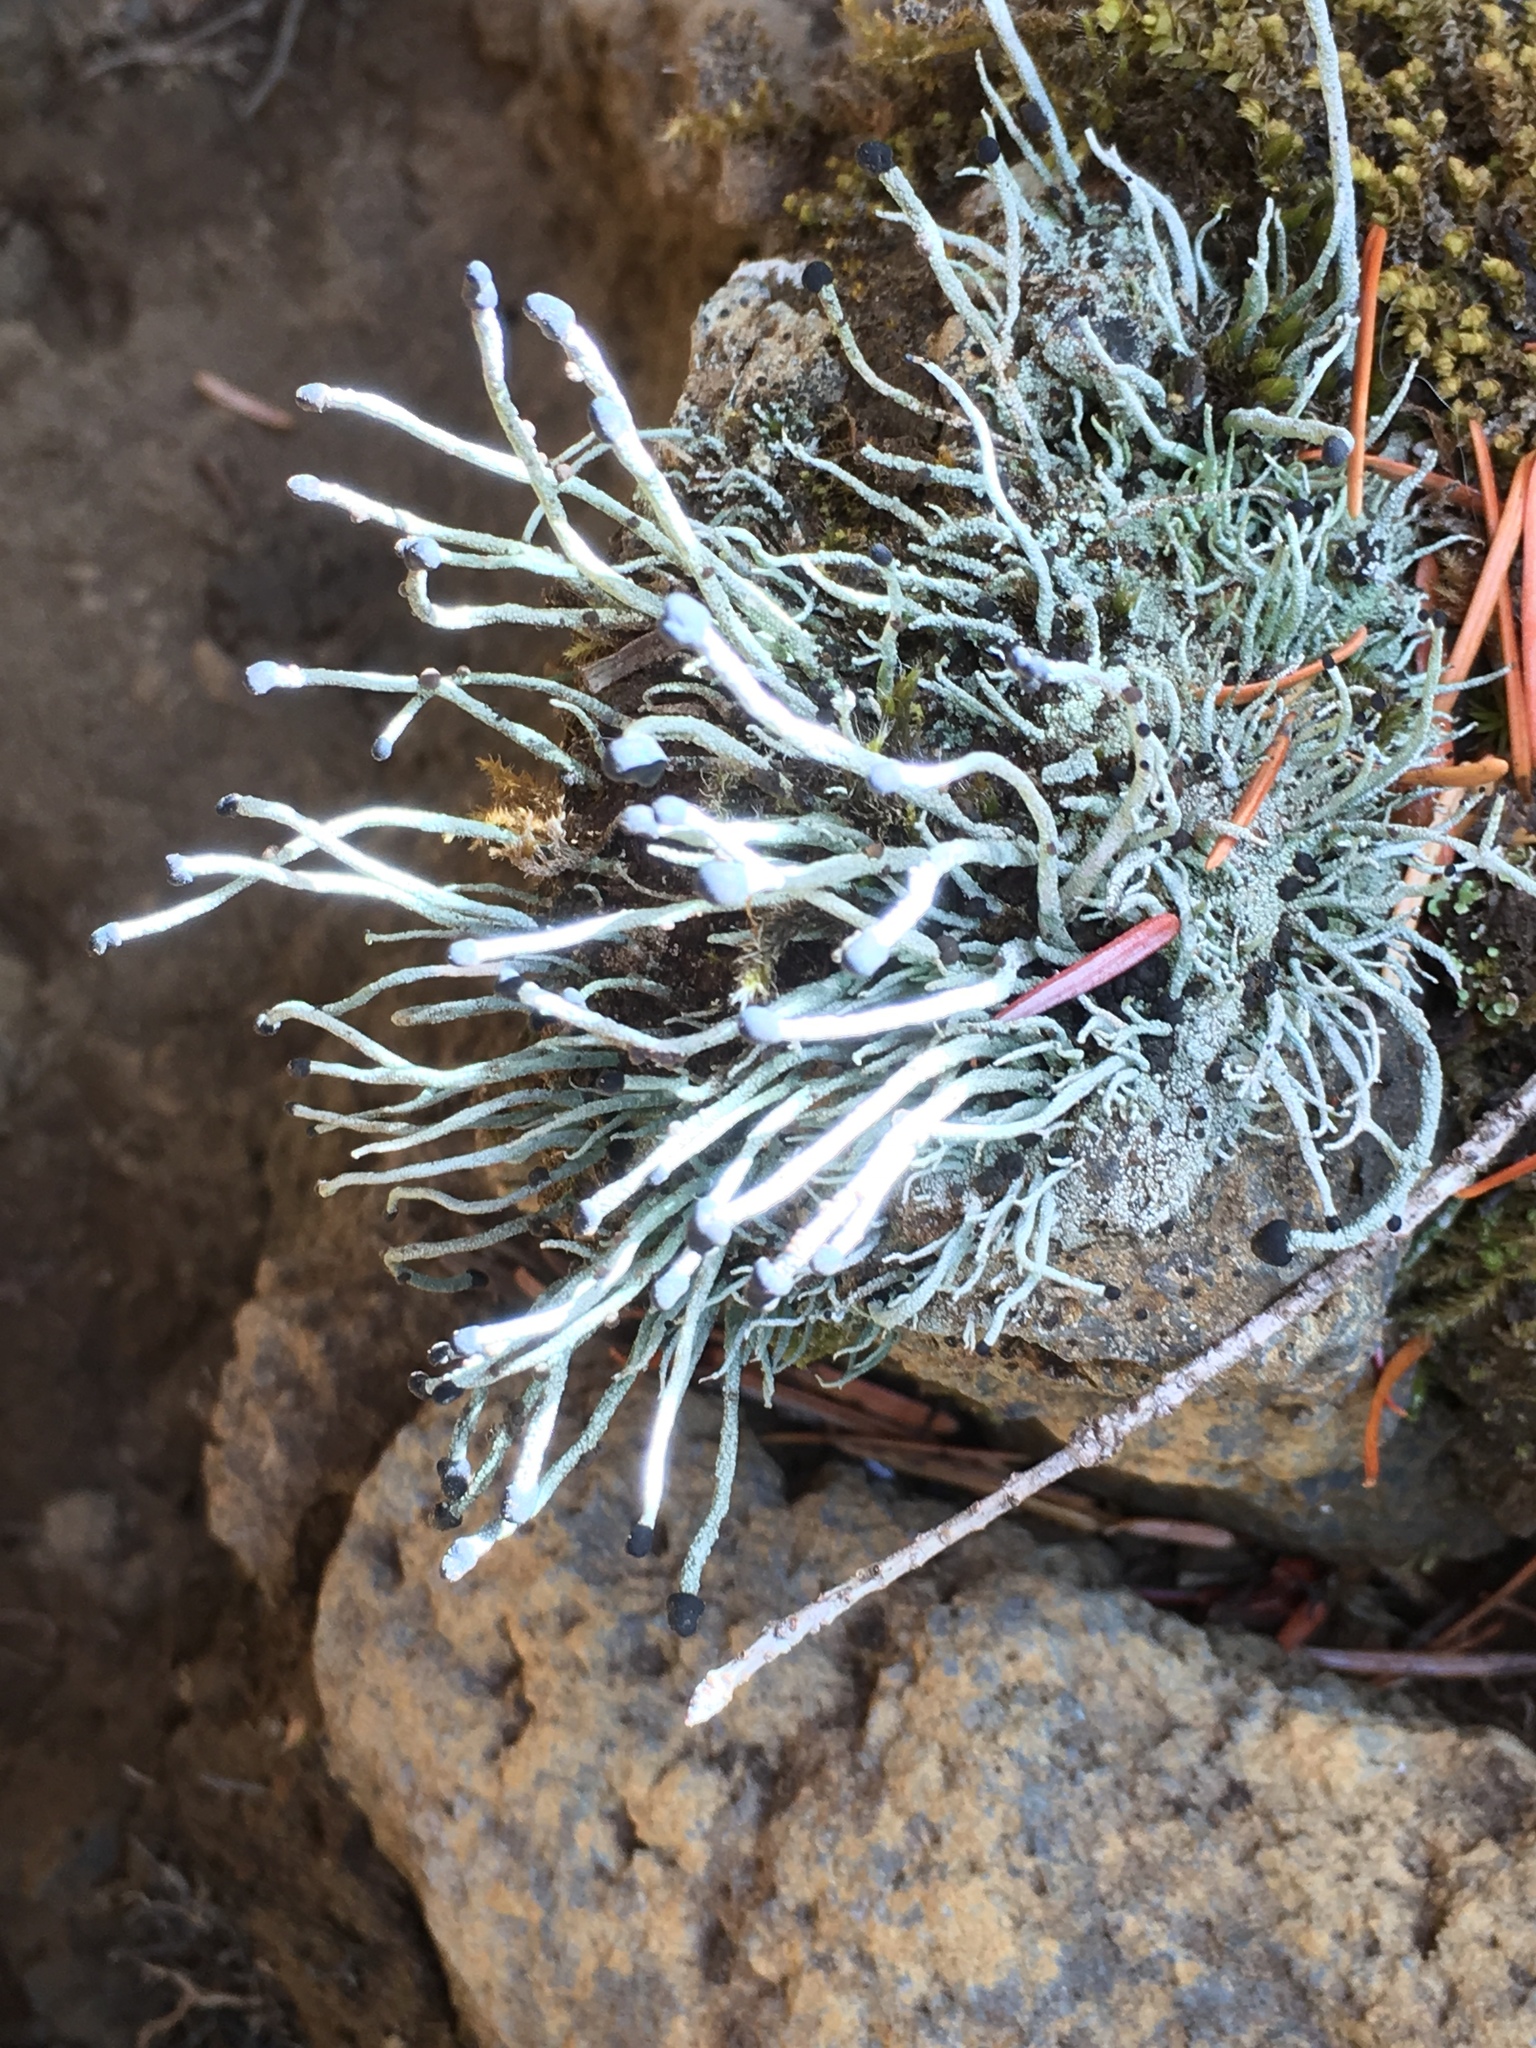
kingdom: Fungi
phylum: Ascomycota
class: Lecanoromycetes
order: Lecanorales
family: Cladoniaceae
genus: Pilophorus
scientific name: Pilophorus acicularis
